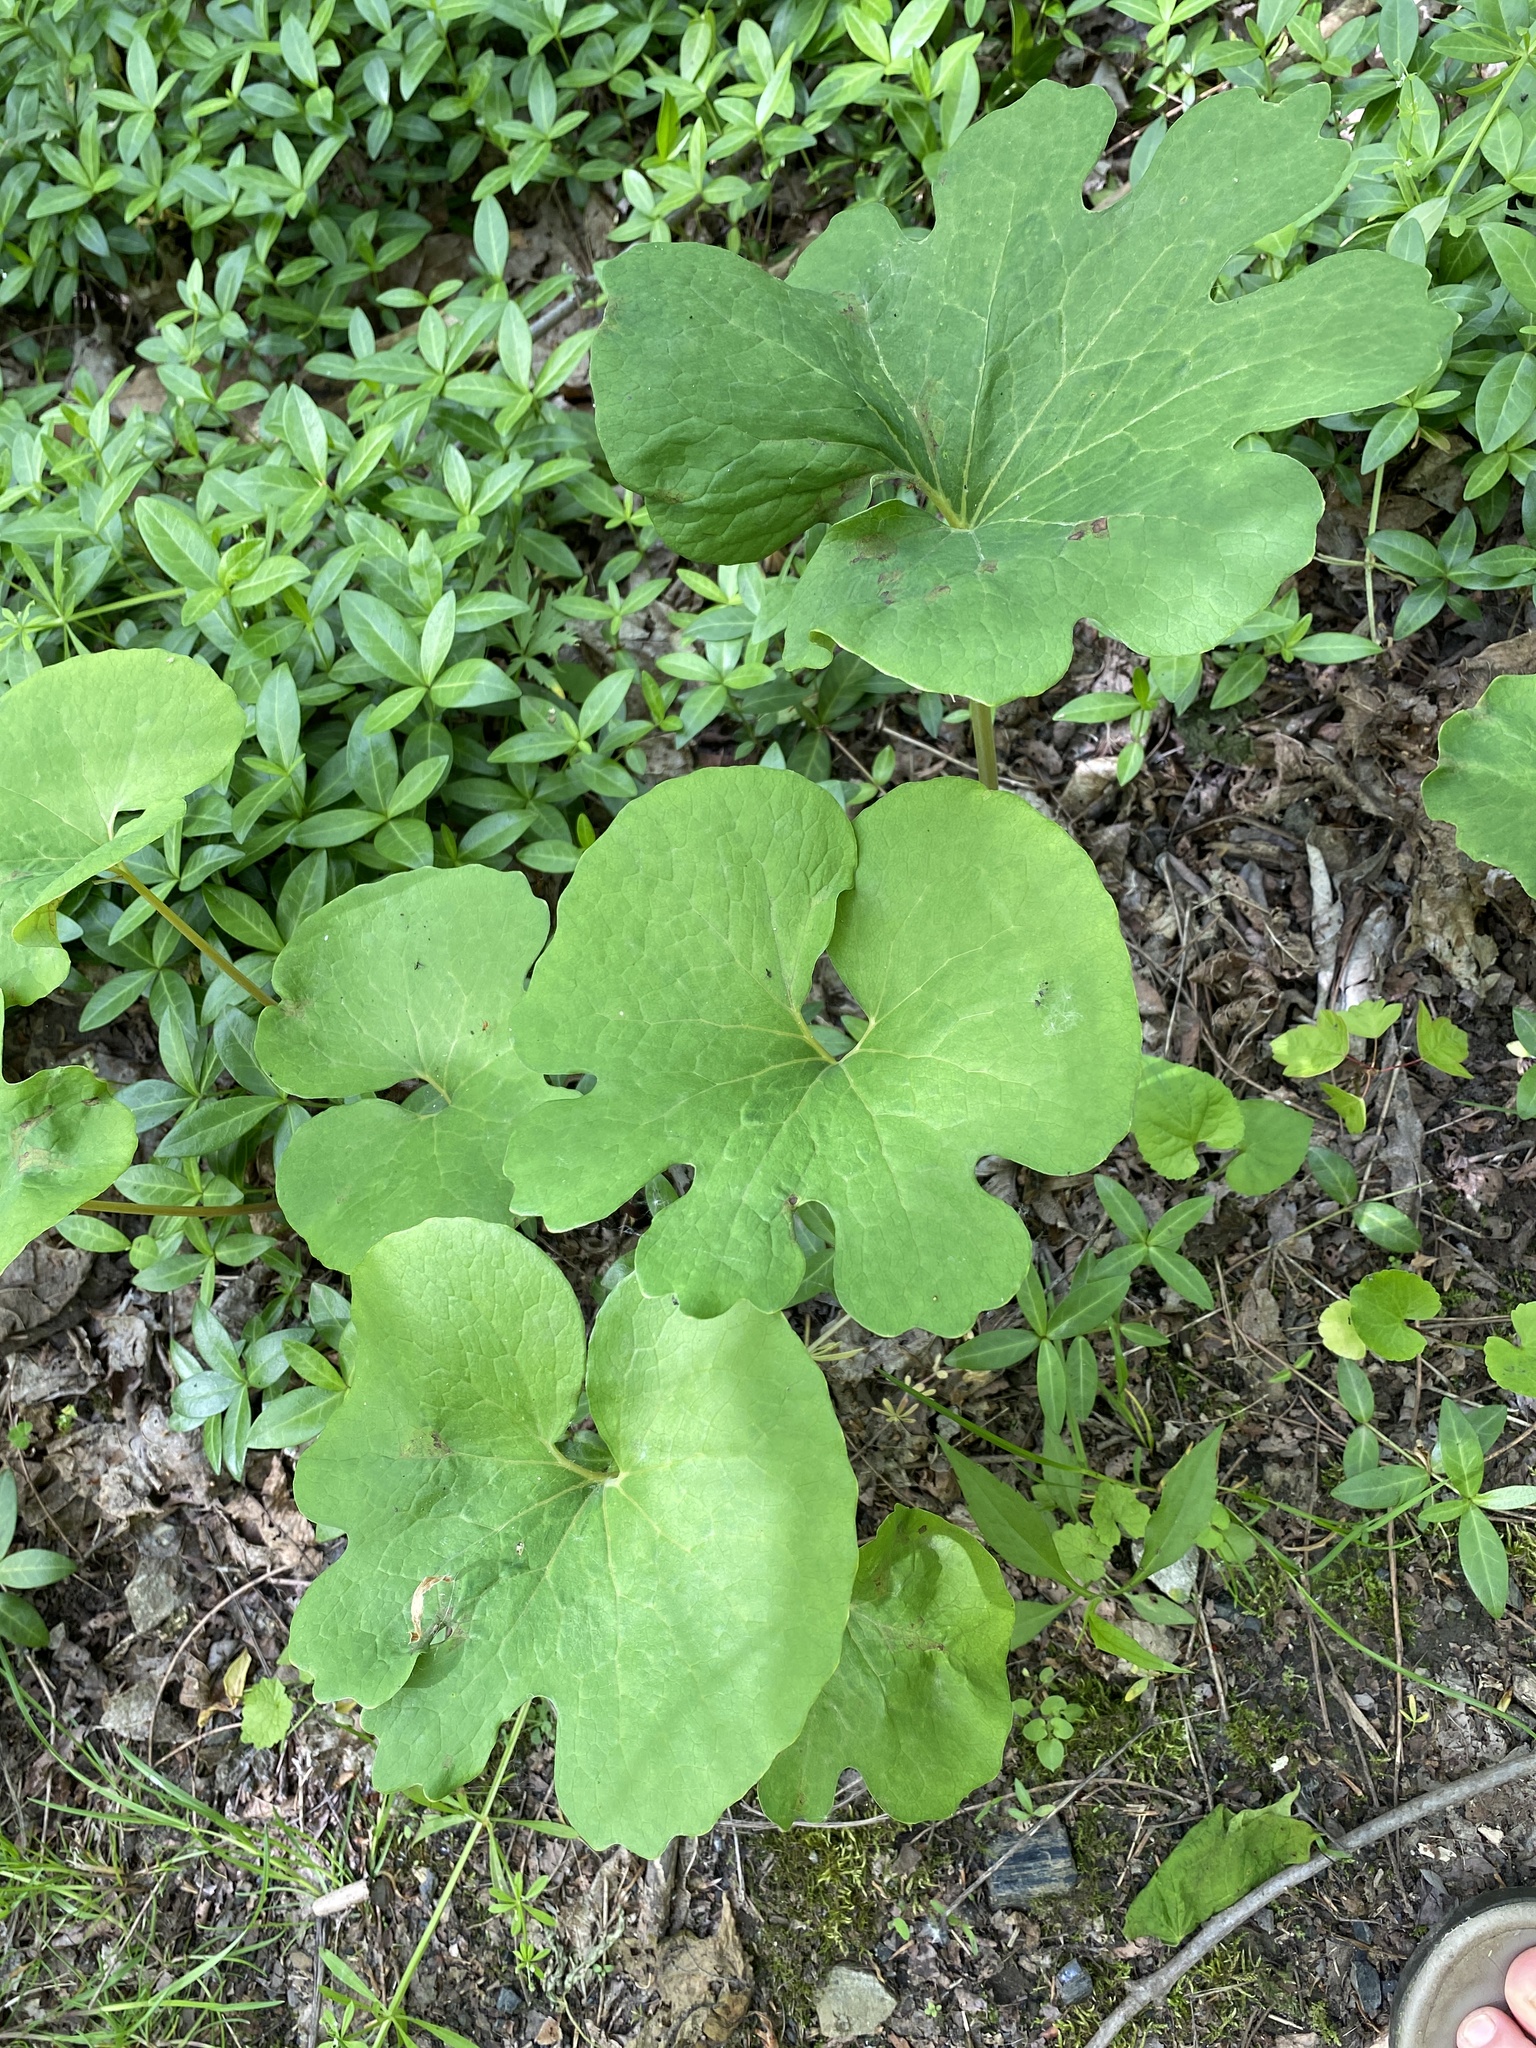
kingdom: Plantae
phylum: Tracheophyta
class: Magnoliopsida
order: Ranunculales
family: Papaveraceae
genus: Sanguinaria
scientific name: Sanguinaria canadensis
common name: Bloodroot
